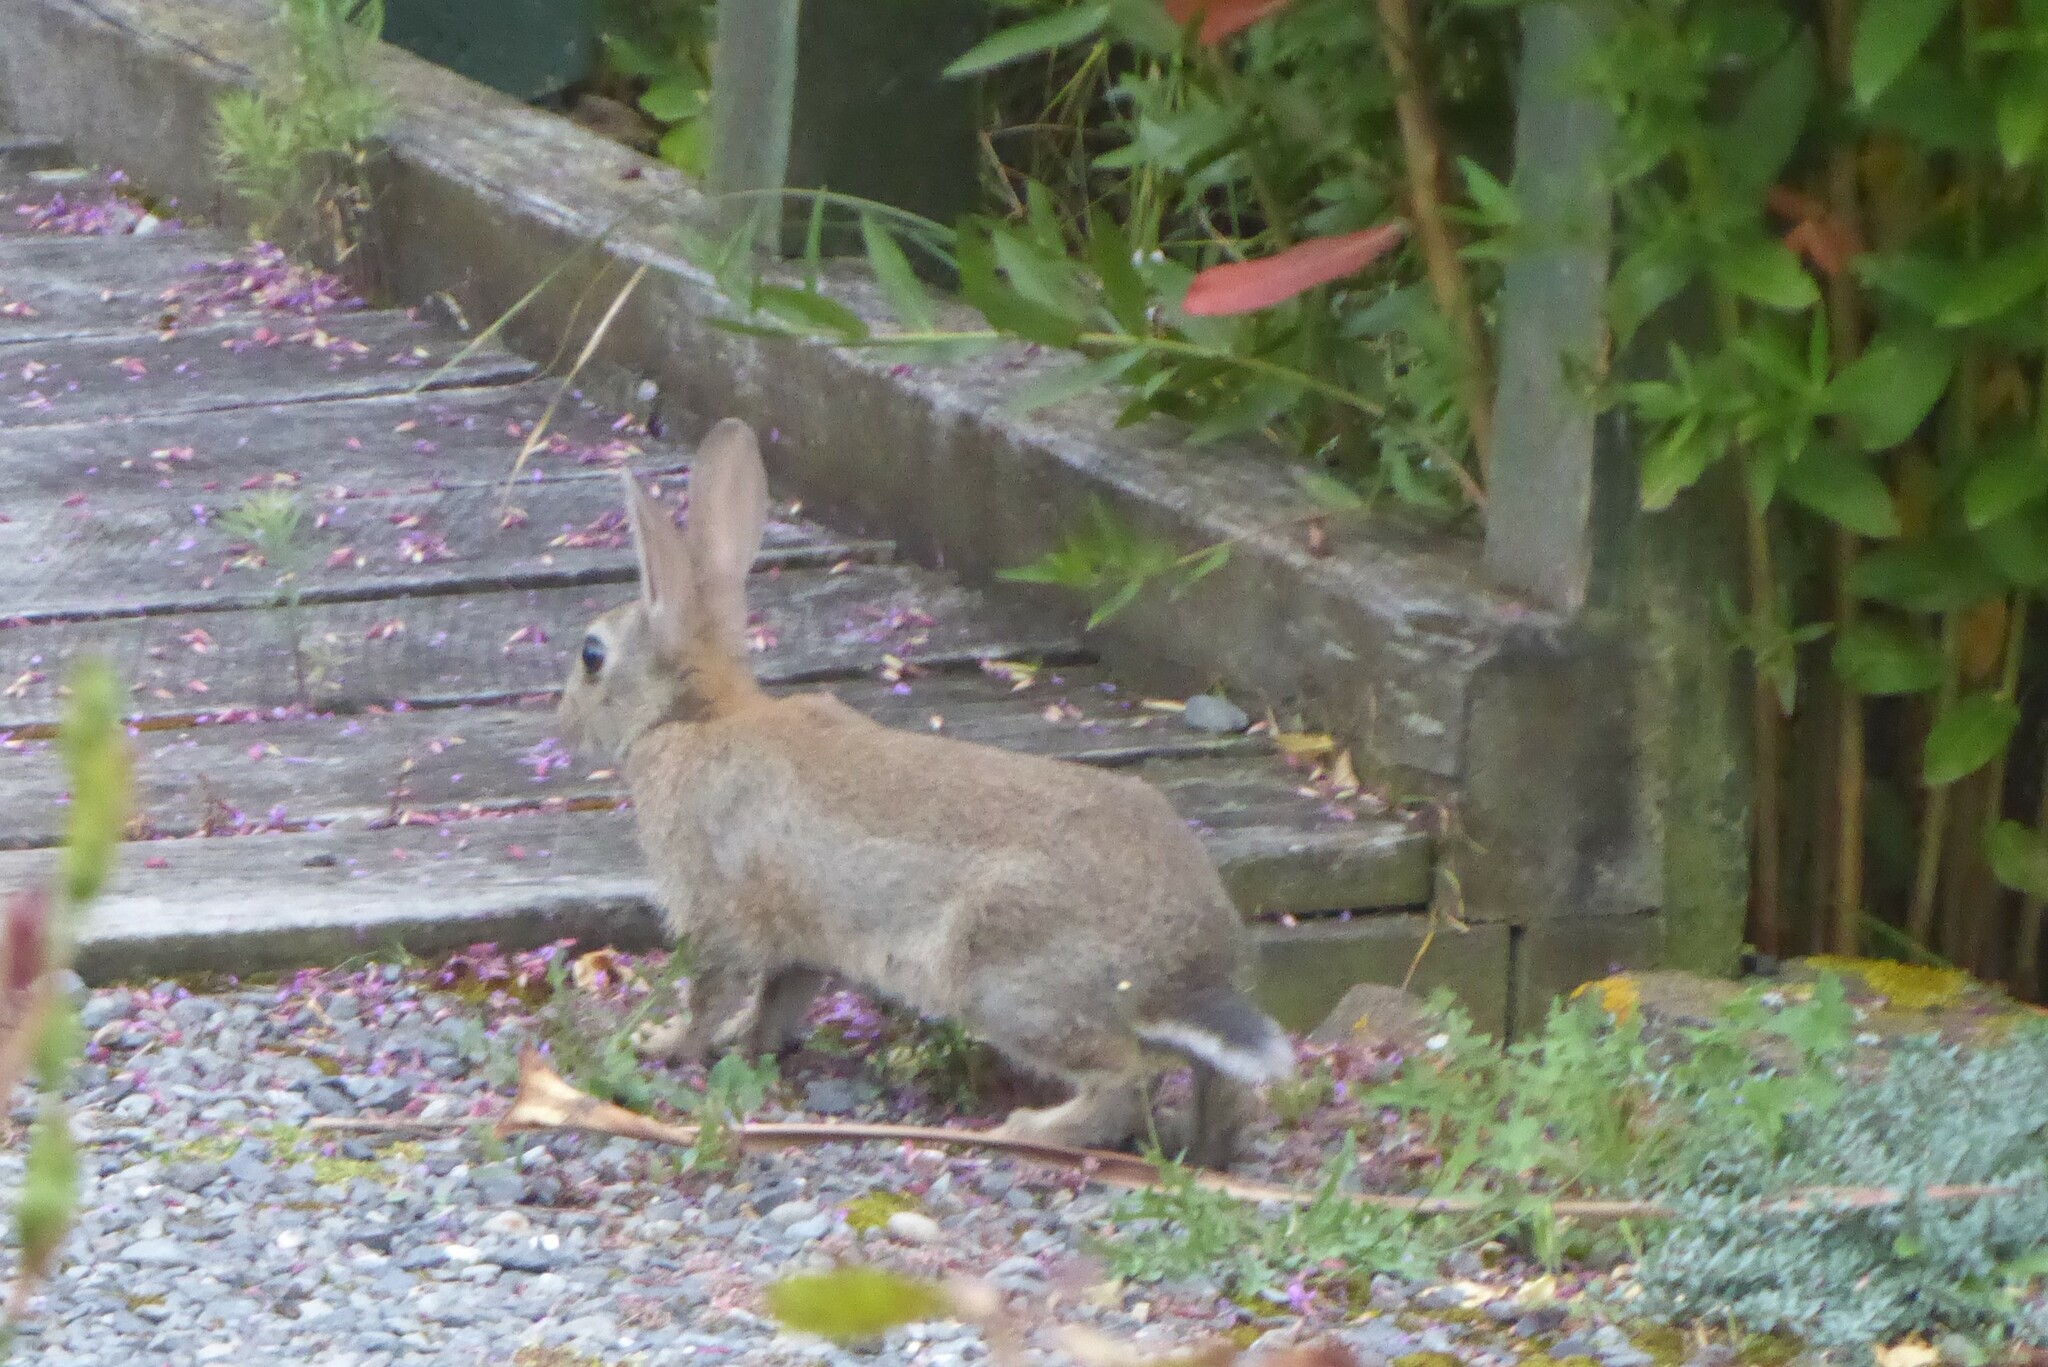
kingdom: Animalia
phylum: Chordata
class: Mammalia
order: Lagomorpha
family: Leporidae
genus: Oryctolagus
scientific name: Oryctolagus cuniculus
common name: European rabbit
